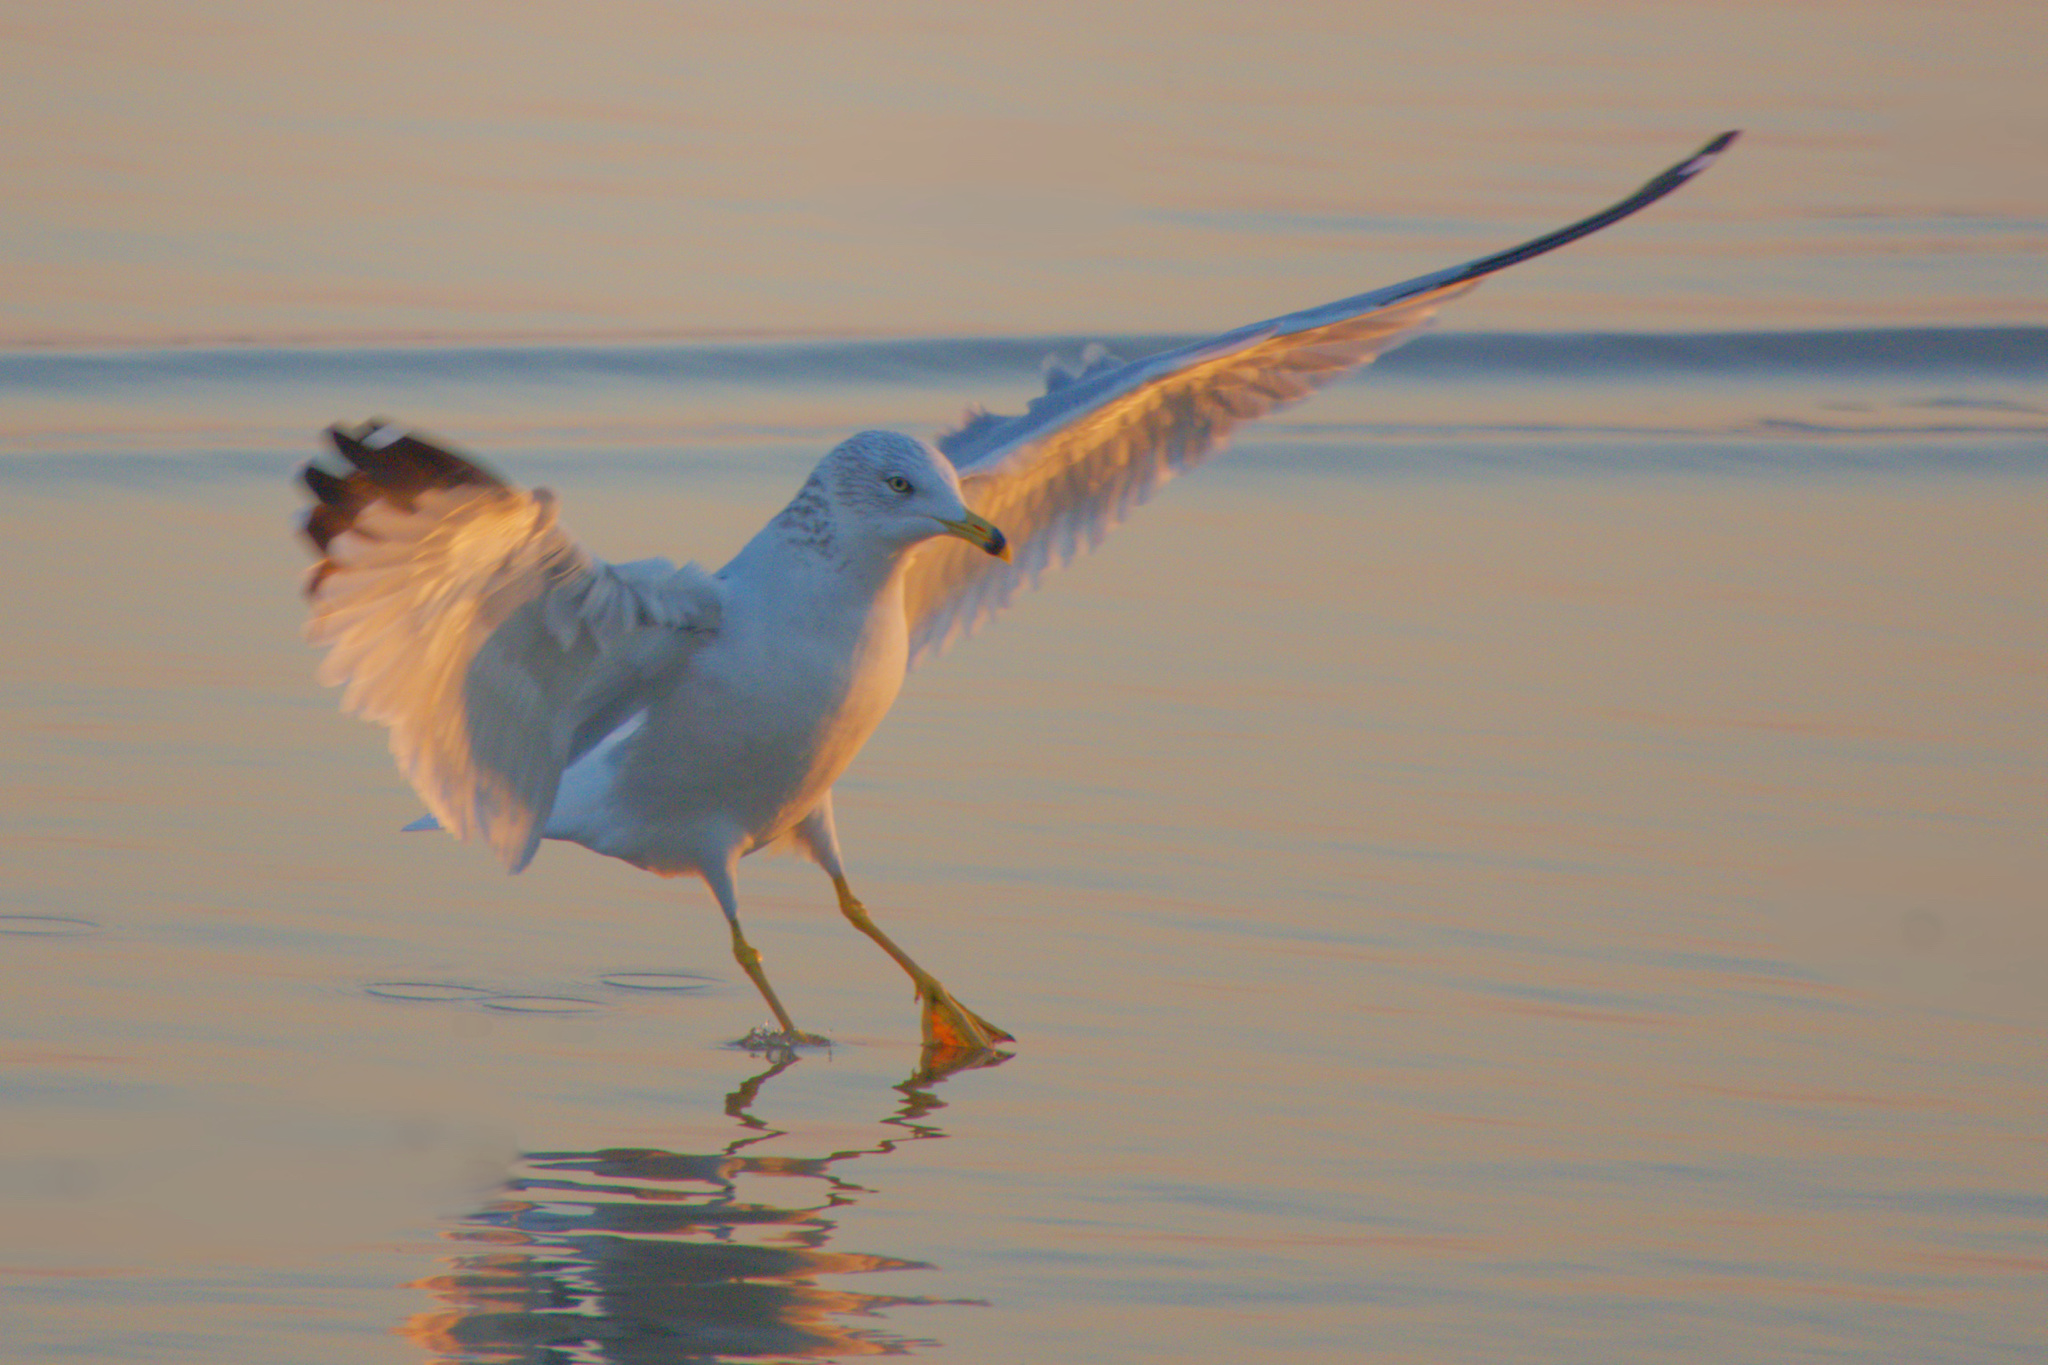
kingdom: Animalia
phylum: Chordata
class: Aves
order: Charadriiformes
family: Laridae
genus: Larus
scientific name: Larus delawarensis
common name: Ring-billed gull
